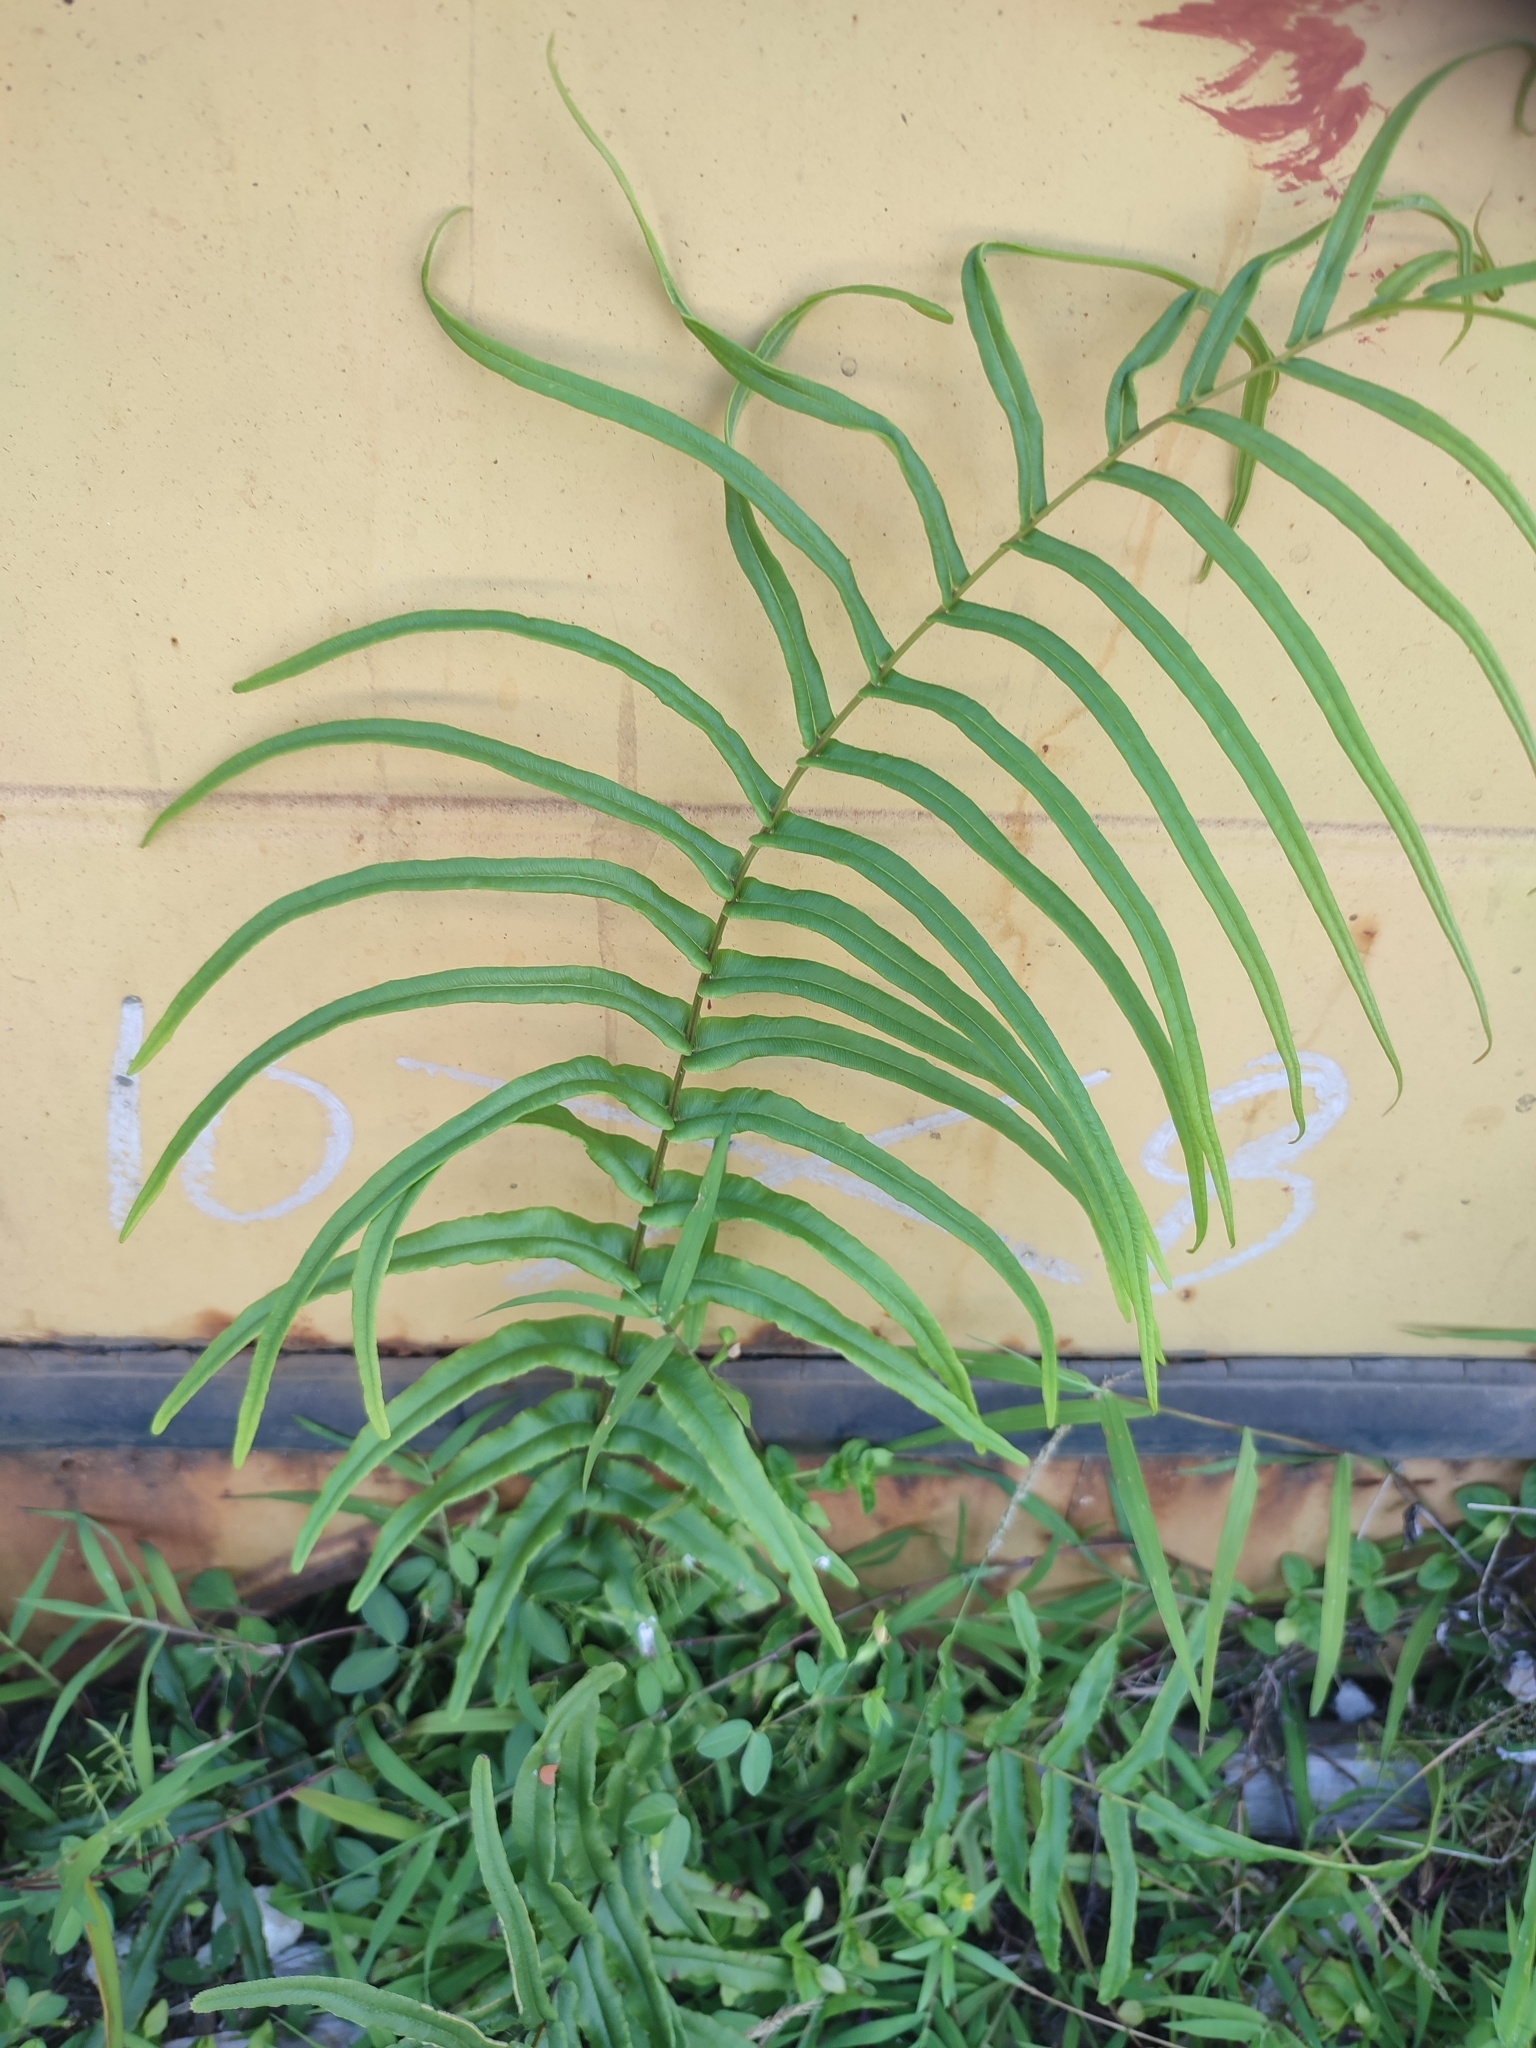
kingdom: Plantae
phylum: Tracheophyta
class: Polypodiopsida
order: Polypodiales
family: Pteridaceae
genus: Pteris
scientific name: Pteris vittata
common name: Ladder brake
